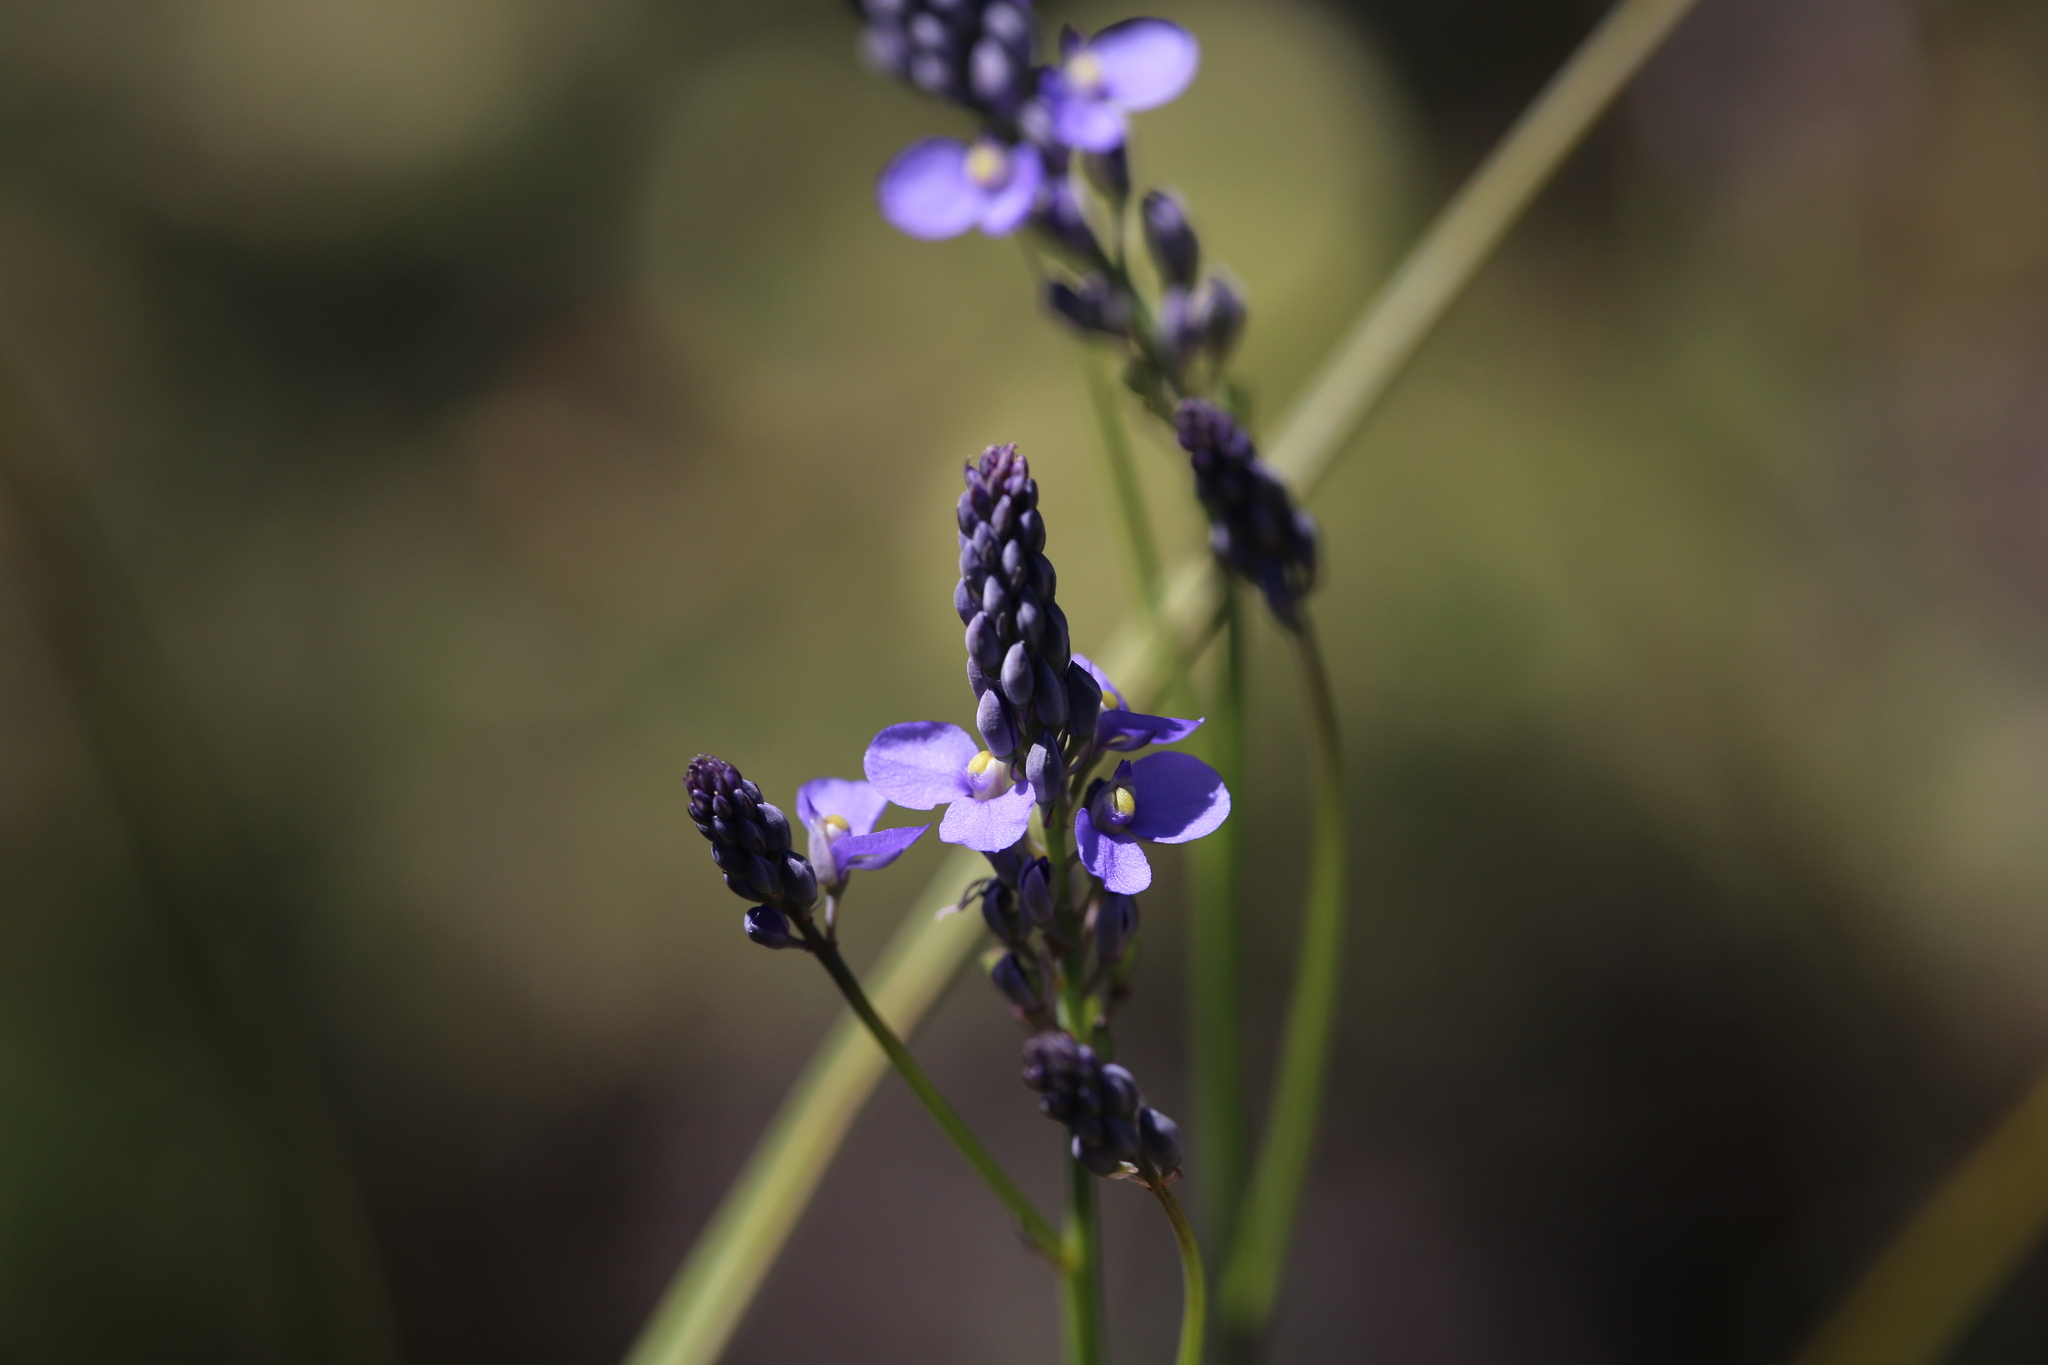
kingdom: Plantae
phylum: Tracheophyta
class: Magnoliopsida
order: Fabales
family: Polygalaceae
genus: Comesperma
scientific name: Comesperma calymega
